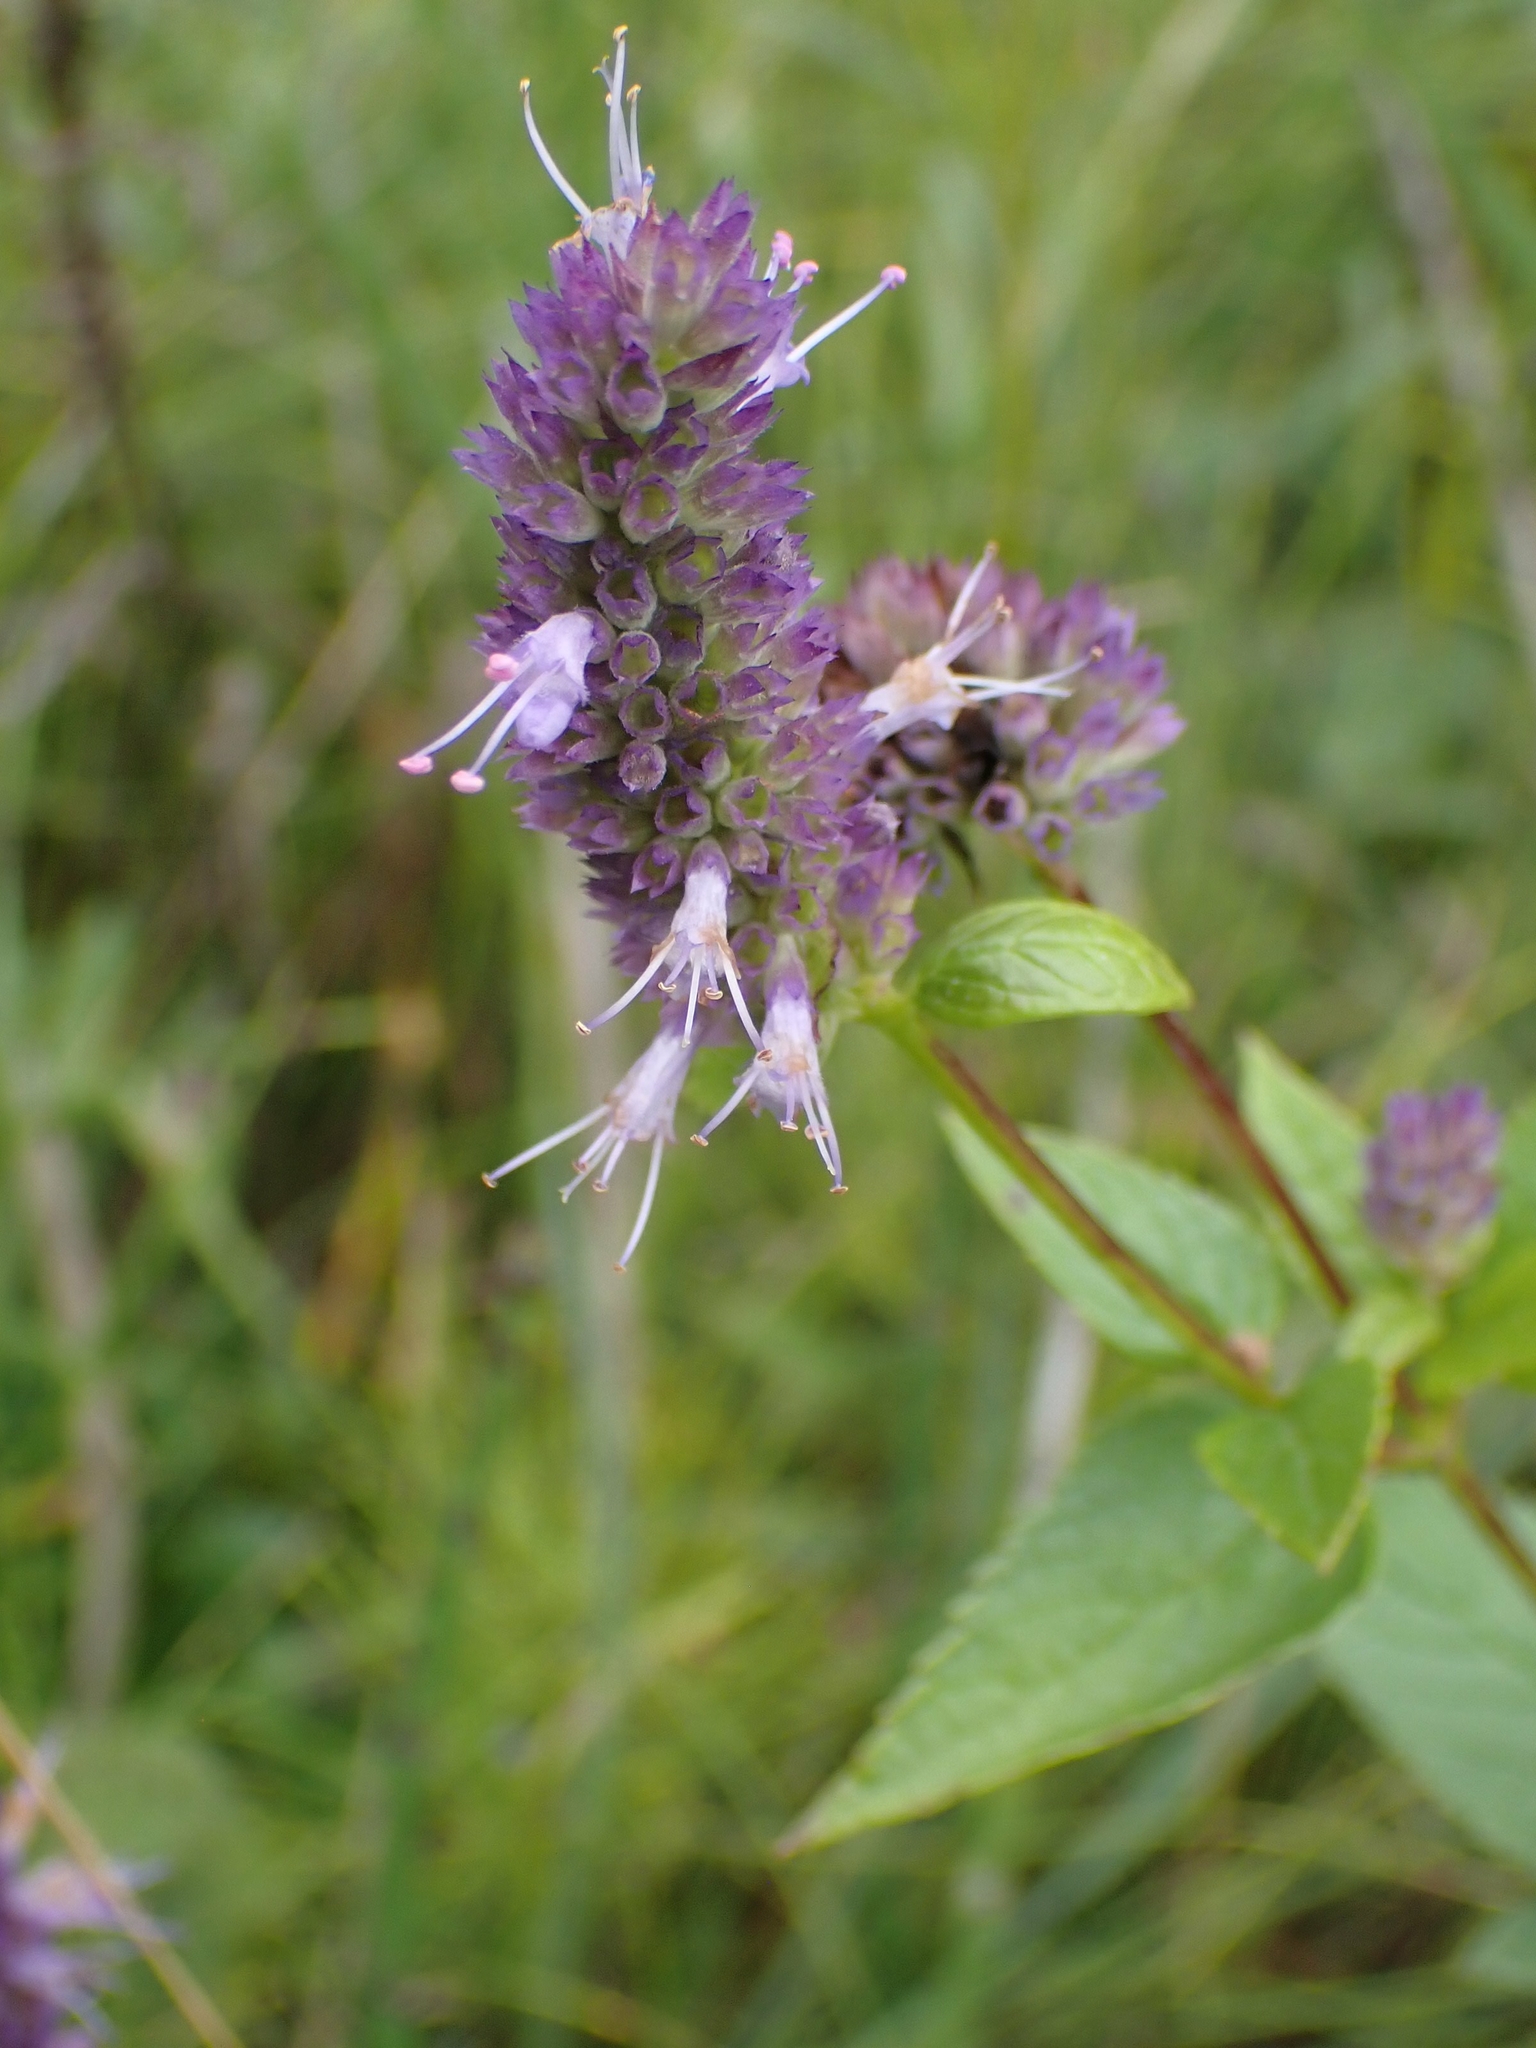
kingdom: Plantae
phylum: Tracheophyta
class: Magnoliopsida
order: Lamiales
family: Lamiaceae
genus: Agastache
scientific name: Agastache foeniculum
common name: Anise hyssop
